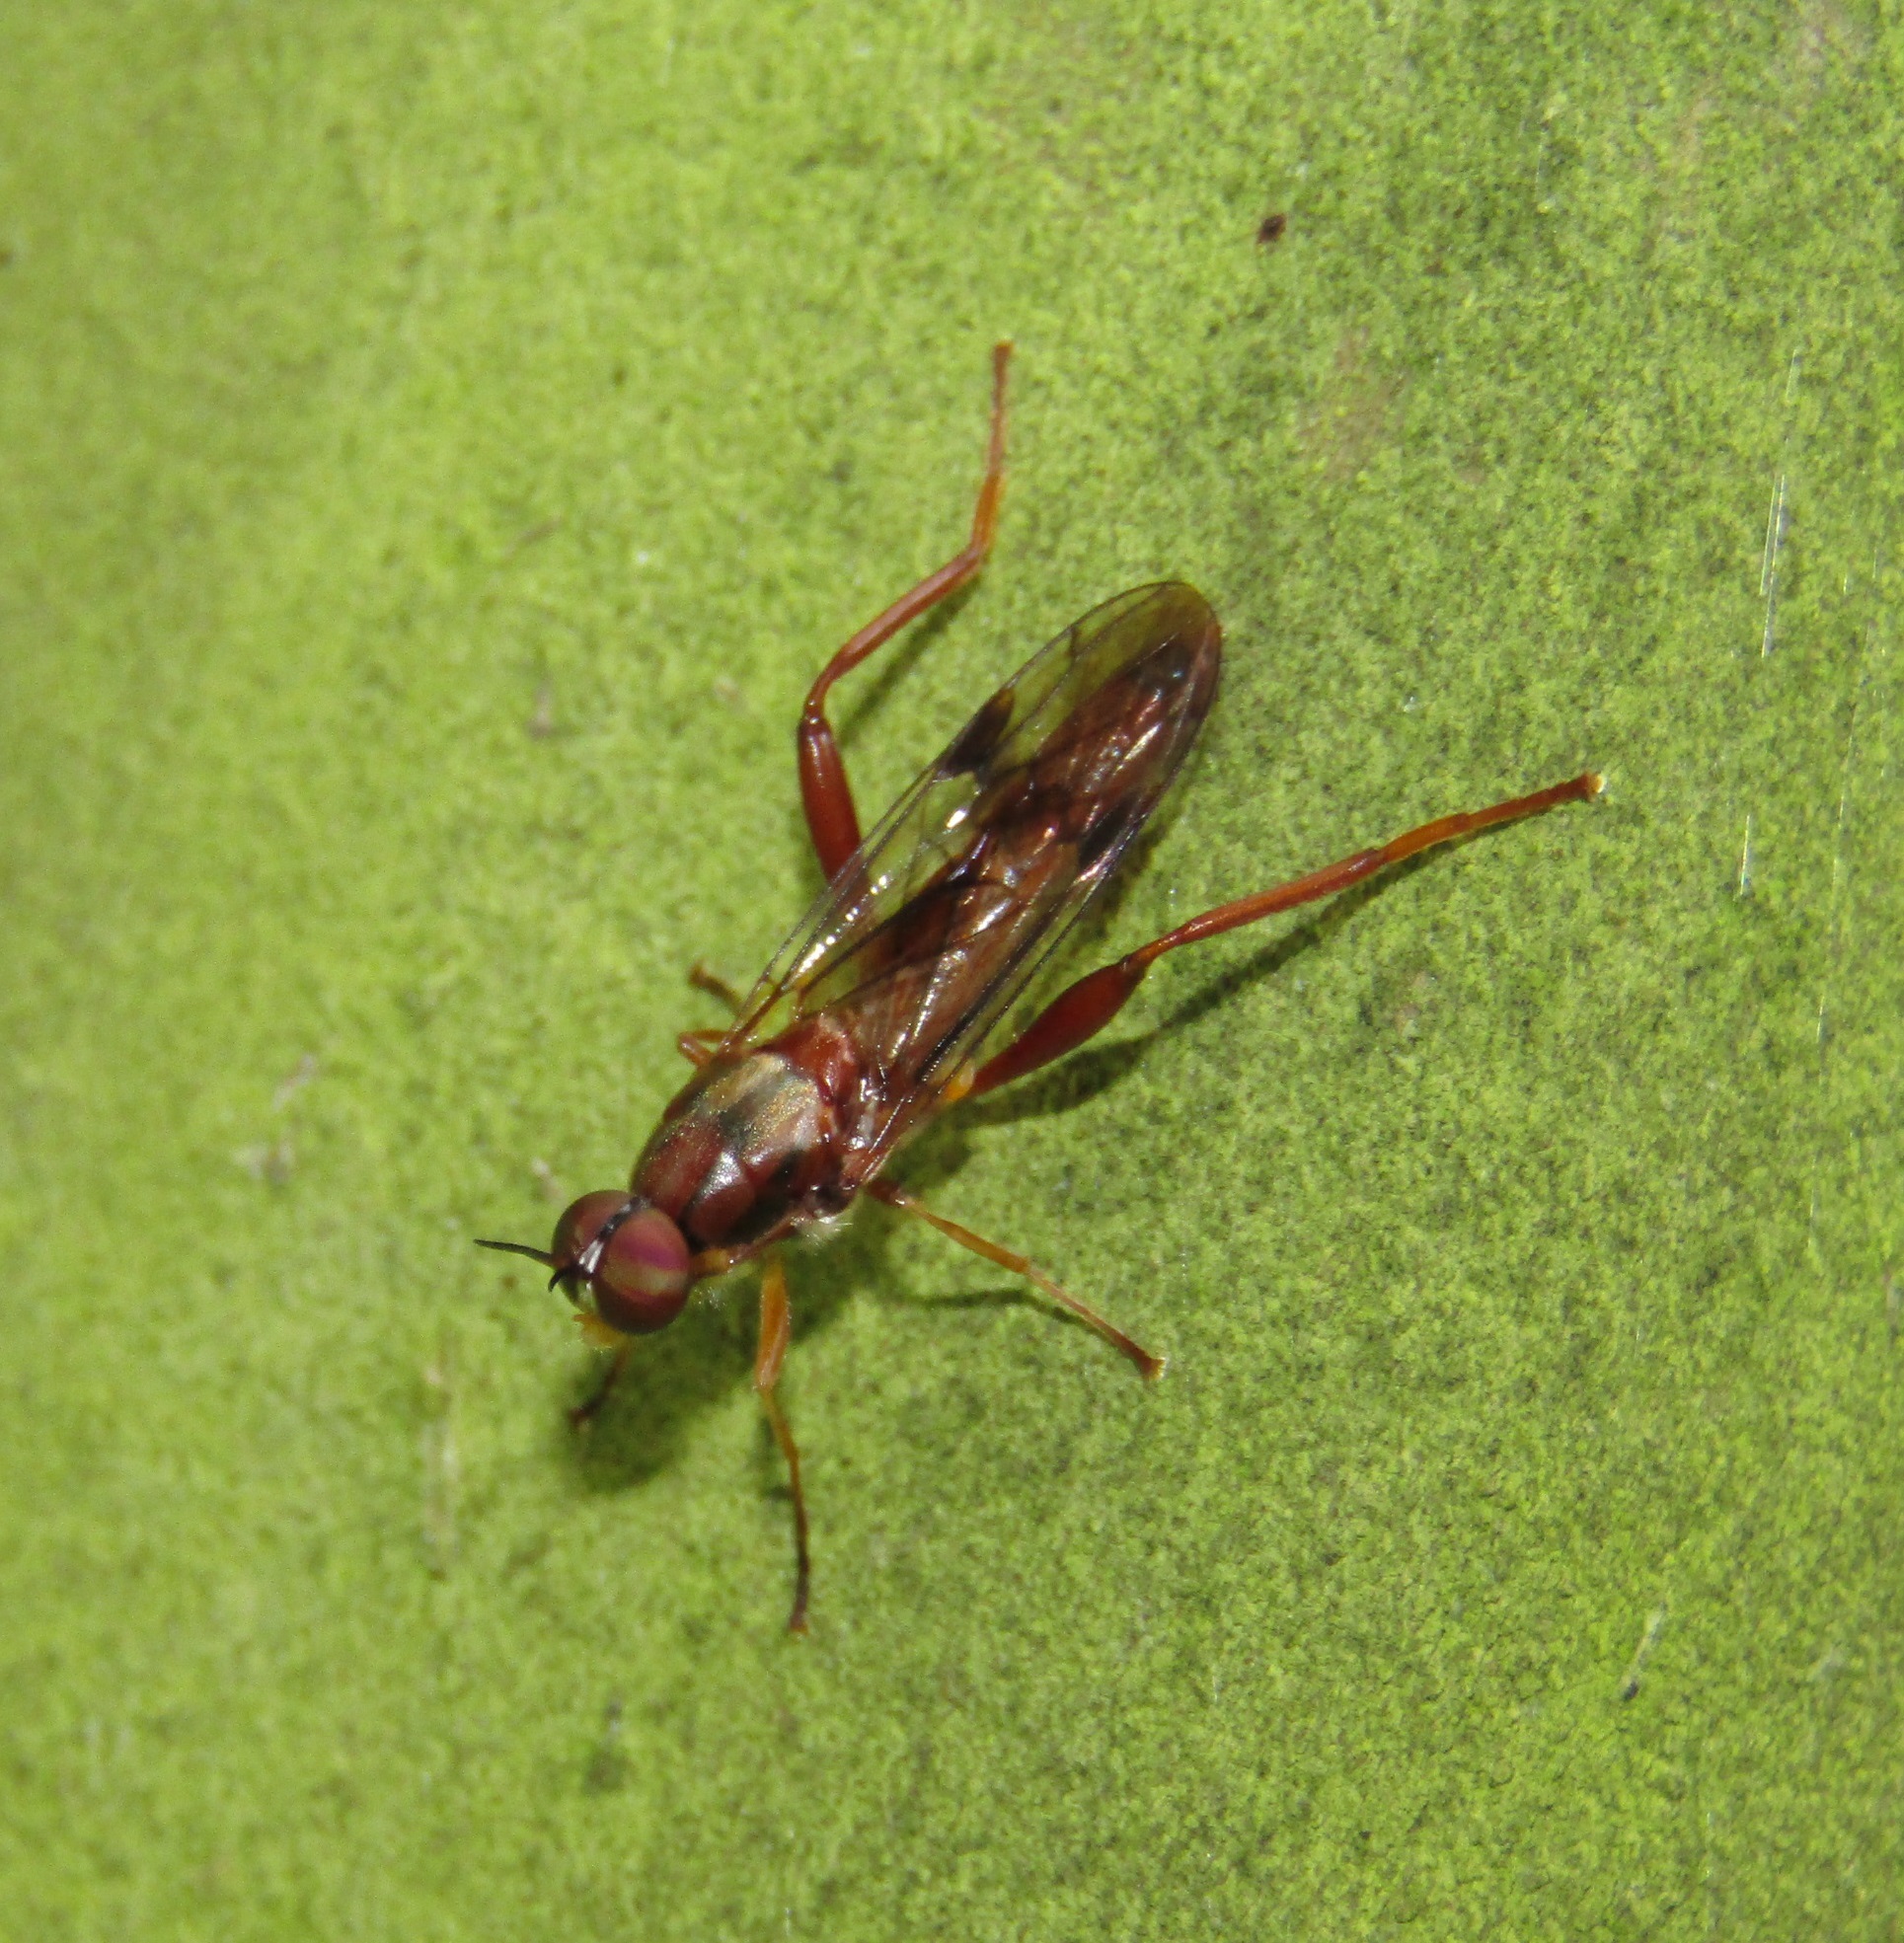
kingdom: Animalia
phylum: Arthropoda
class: Insecta
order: Diptera
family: Stratiomyidae
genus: Benhamyia
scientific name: Benhamyia straznitzkii
